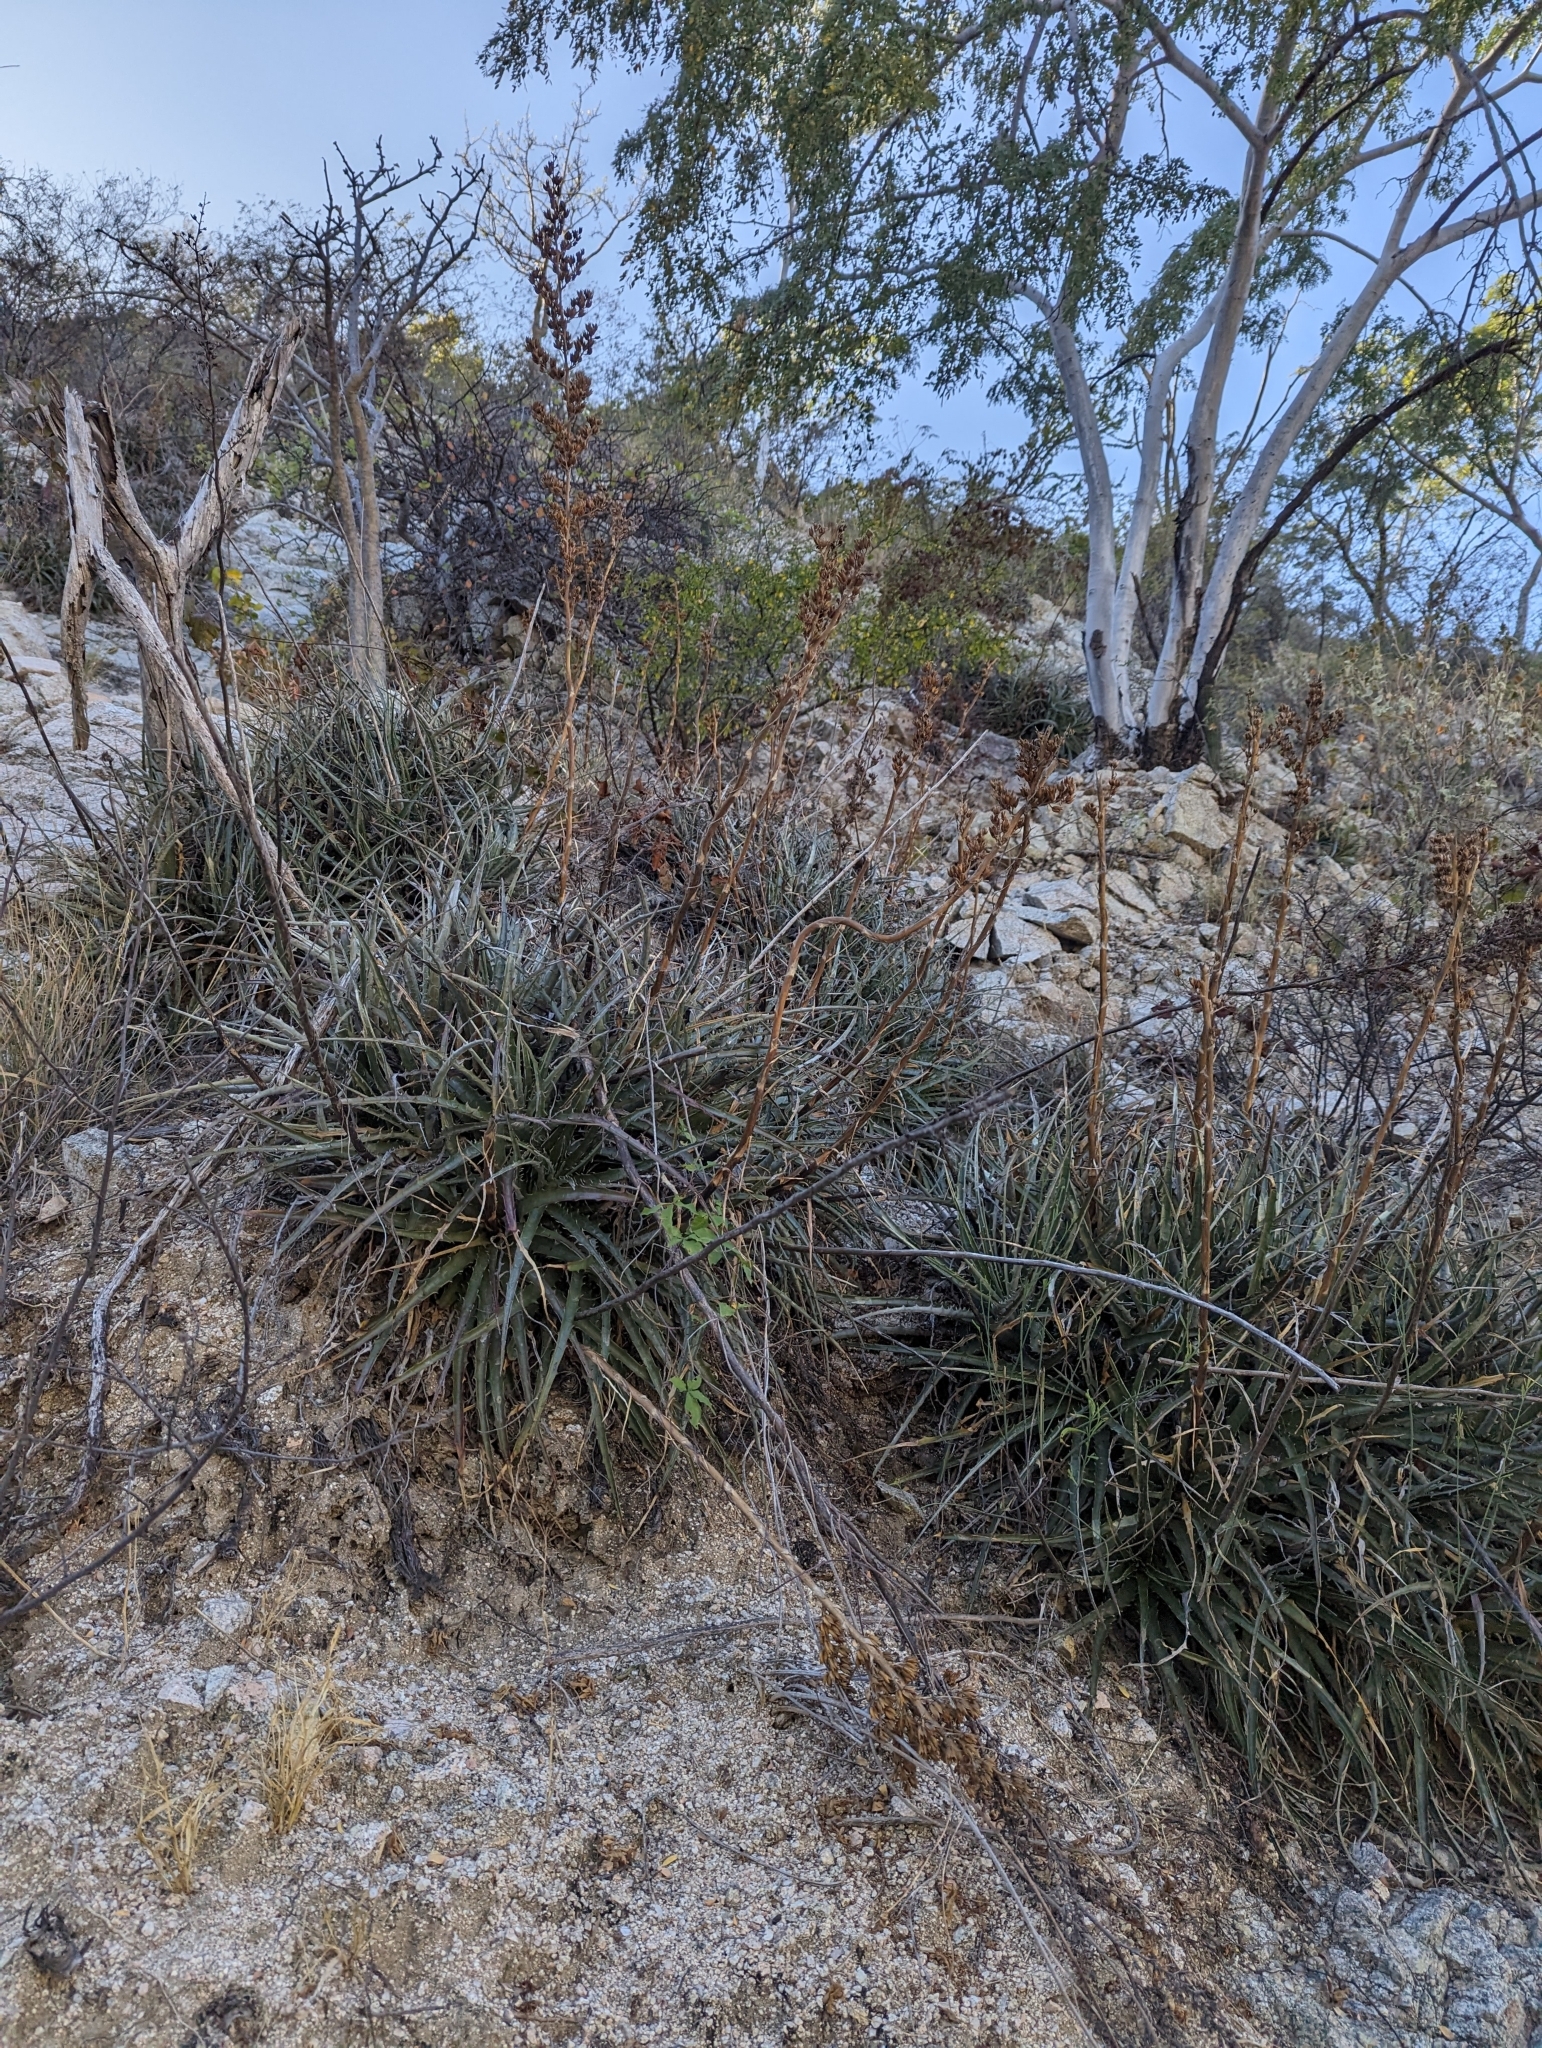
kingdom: Plantae
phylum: Tracheophyta
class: Liliopsida
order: Poales
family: Bromeliaceae
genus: Hechtia
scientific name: Hechtia montana
